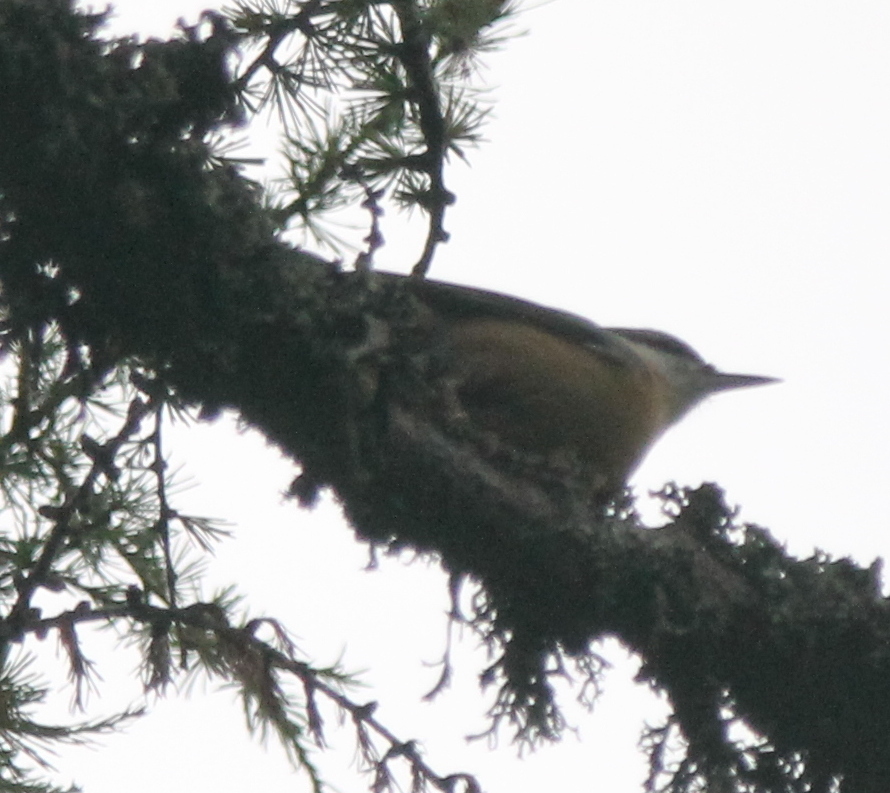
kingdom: Animalia
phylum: Chordata
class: Aves
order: Passeriformes
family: Sittidae
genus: Sitta
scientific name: Sitta europaea
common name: Eurasian nuthatch
